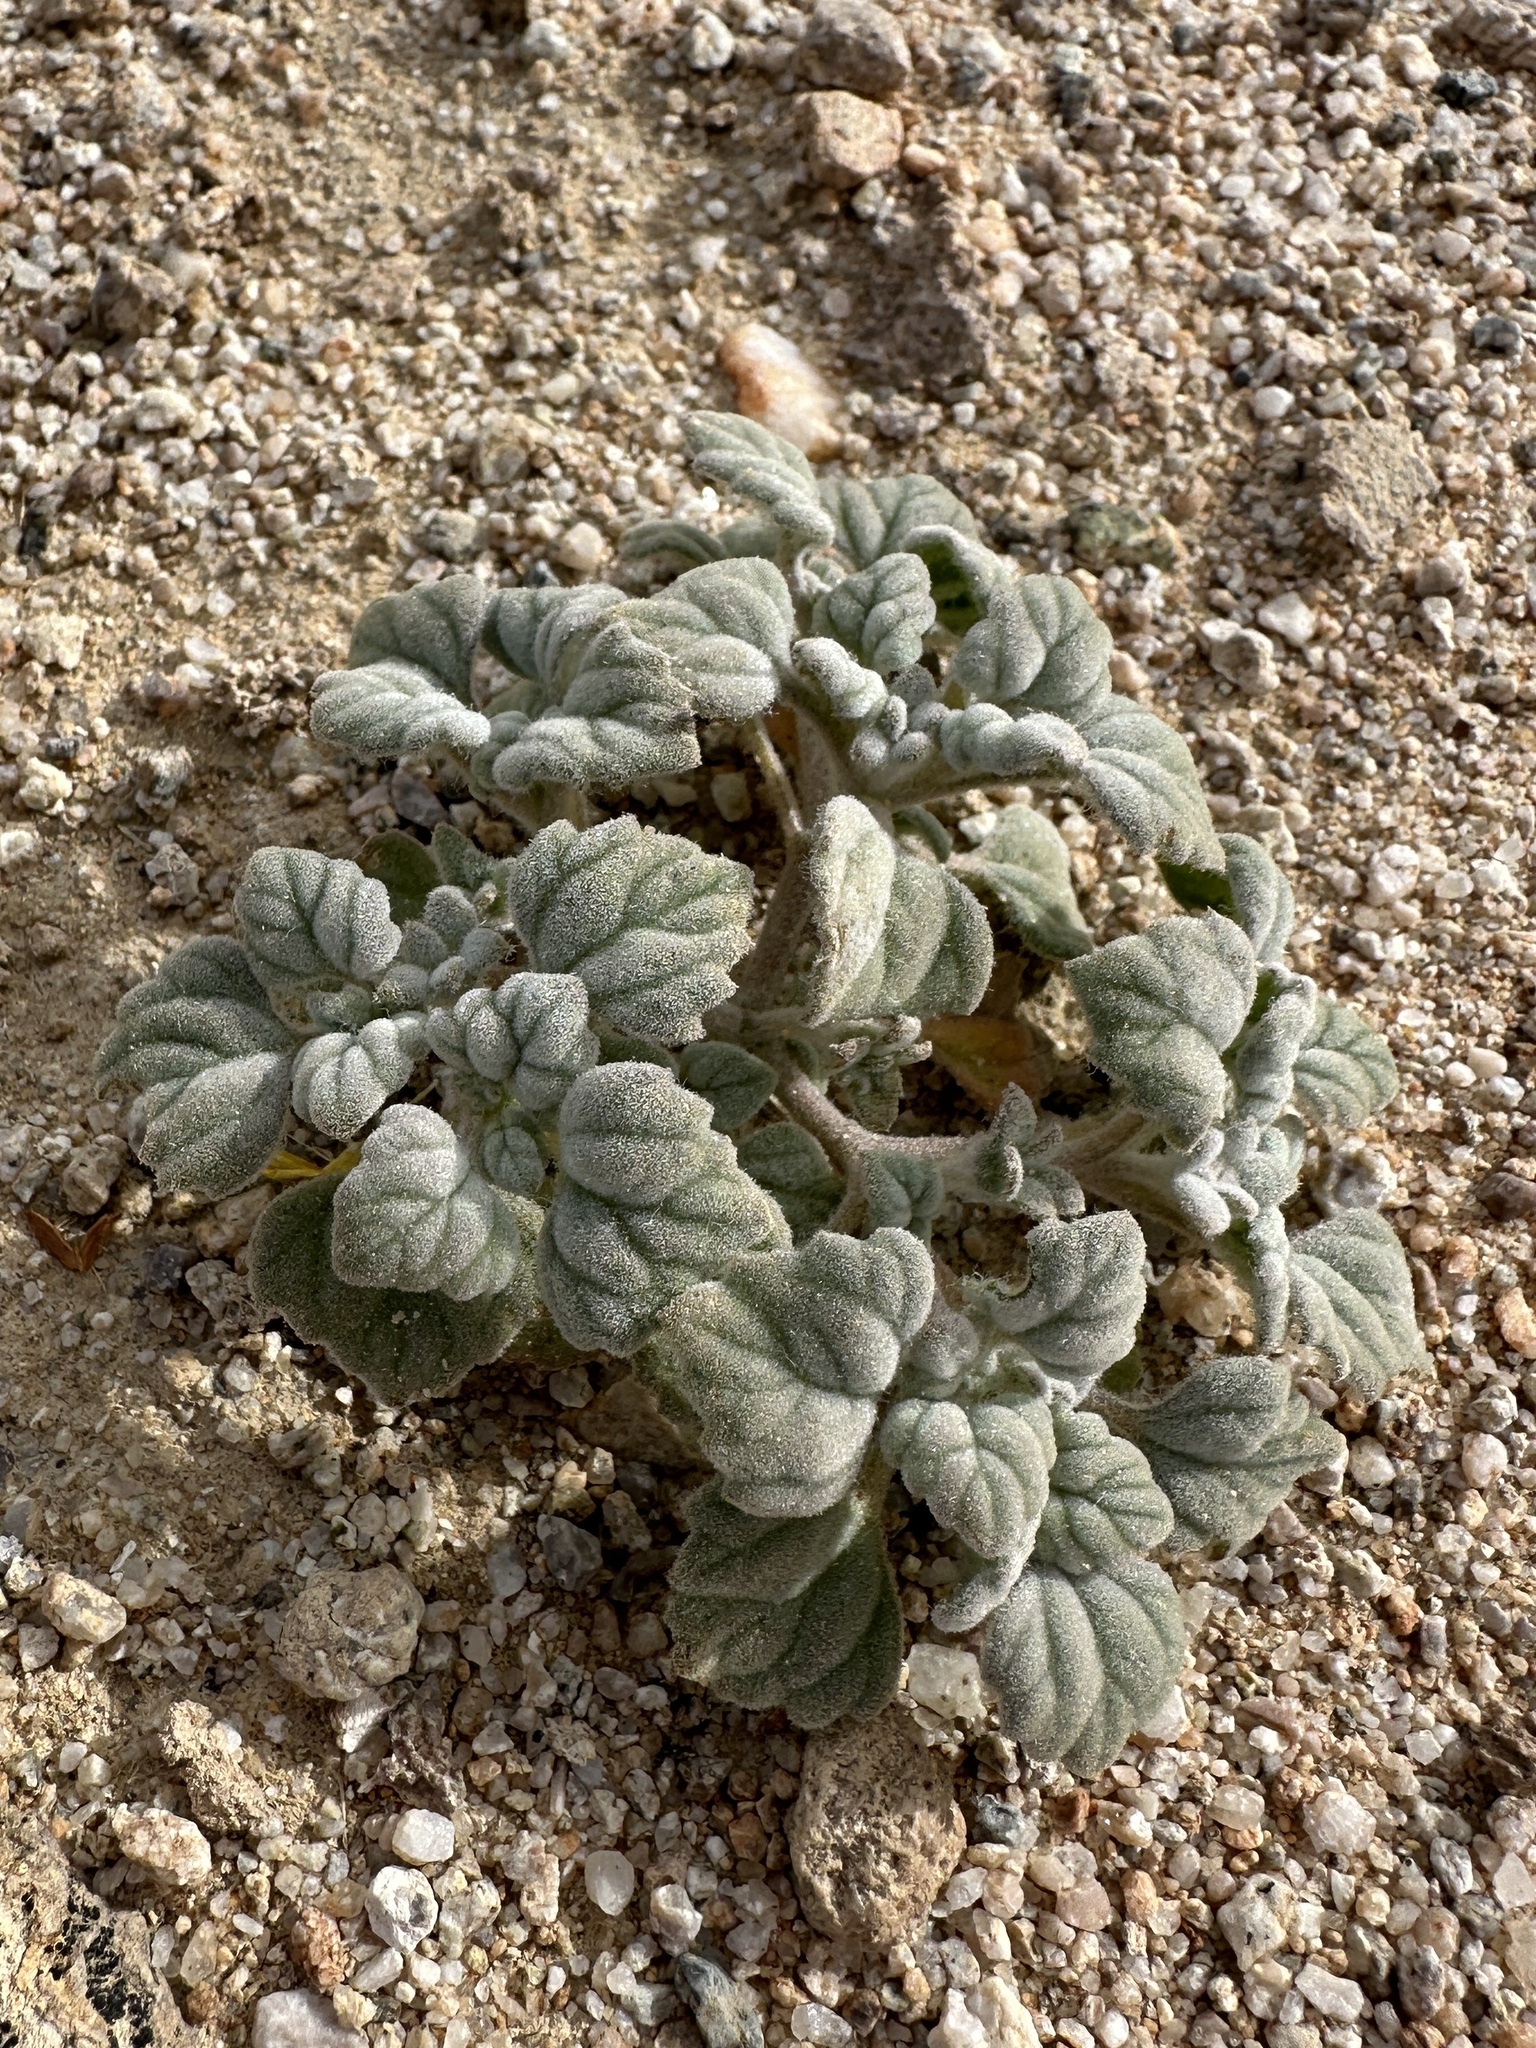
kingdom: Plantae
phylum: Tracheophyta
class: Magnoliopsida
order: Asterales
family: Asteraceae
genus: Psathyrotes
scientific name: Psathyrotes ramosissima
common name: Turtleback
